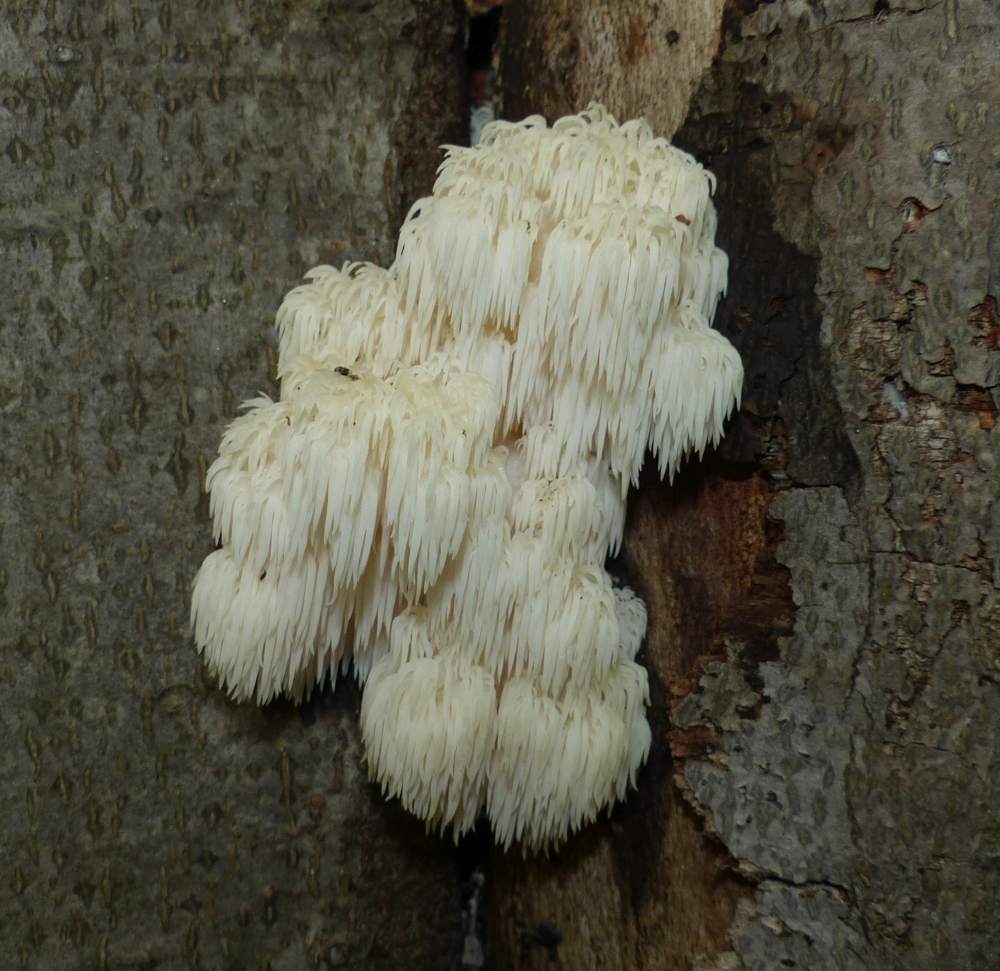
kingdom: Fungi
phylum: Basidiomycota
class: Agaricomycetes
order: Russulales
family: Hericiaceae
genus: Hericium
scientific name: Hericium americanum
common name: Bear's head tooth
